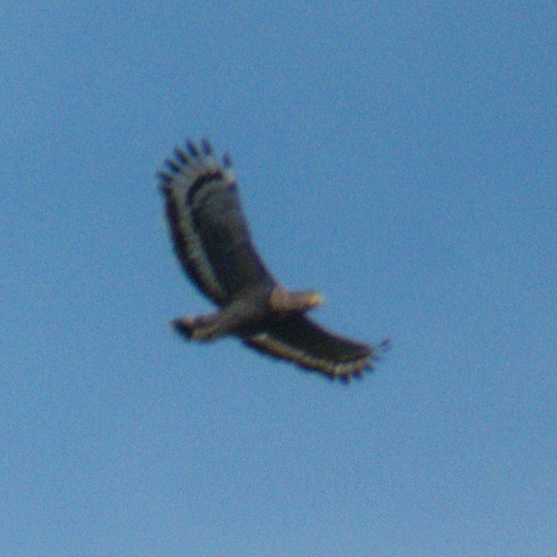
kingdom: Animalia
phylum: Chordata
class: Aves
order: Accipitriformes
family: Accipitridae
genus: Spilornis
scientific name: Spilornis cheela
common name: Crested serpent eagle
